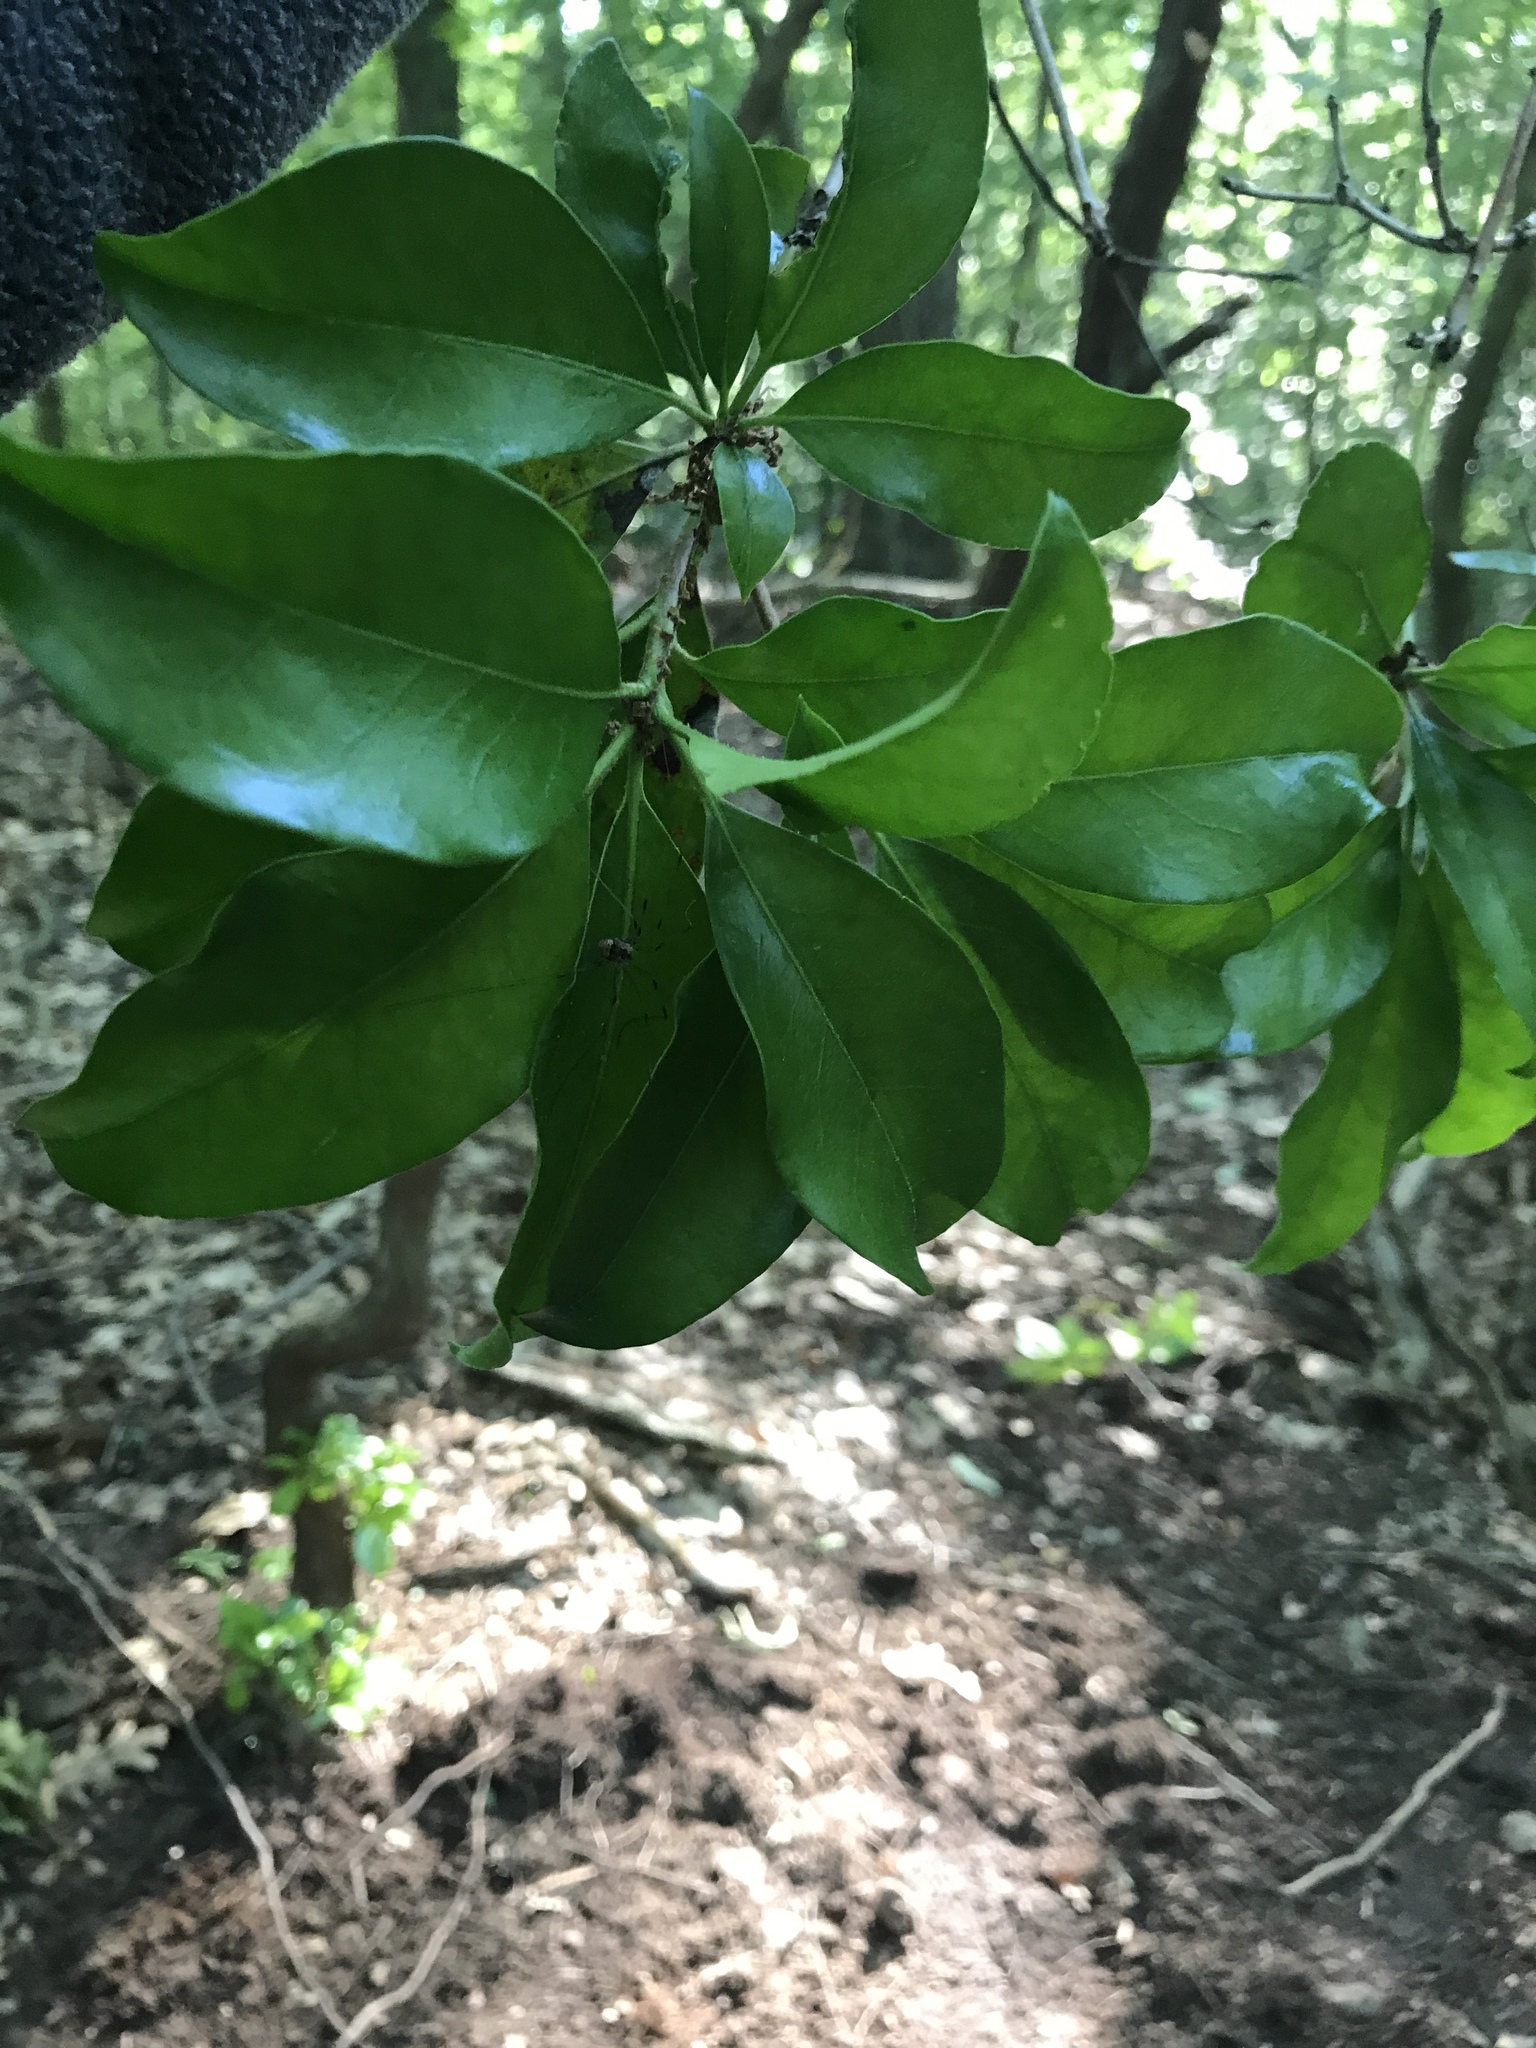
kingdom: Plantae
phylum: Tracheophyta
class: Magnoliopsida
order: Ericales
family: Ericaceae
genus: Kalmia
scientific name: Kalmia latifolia
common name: Mountain-laurel
